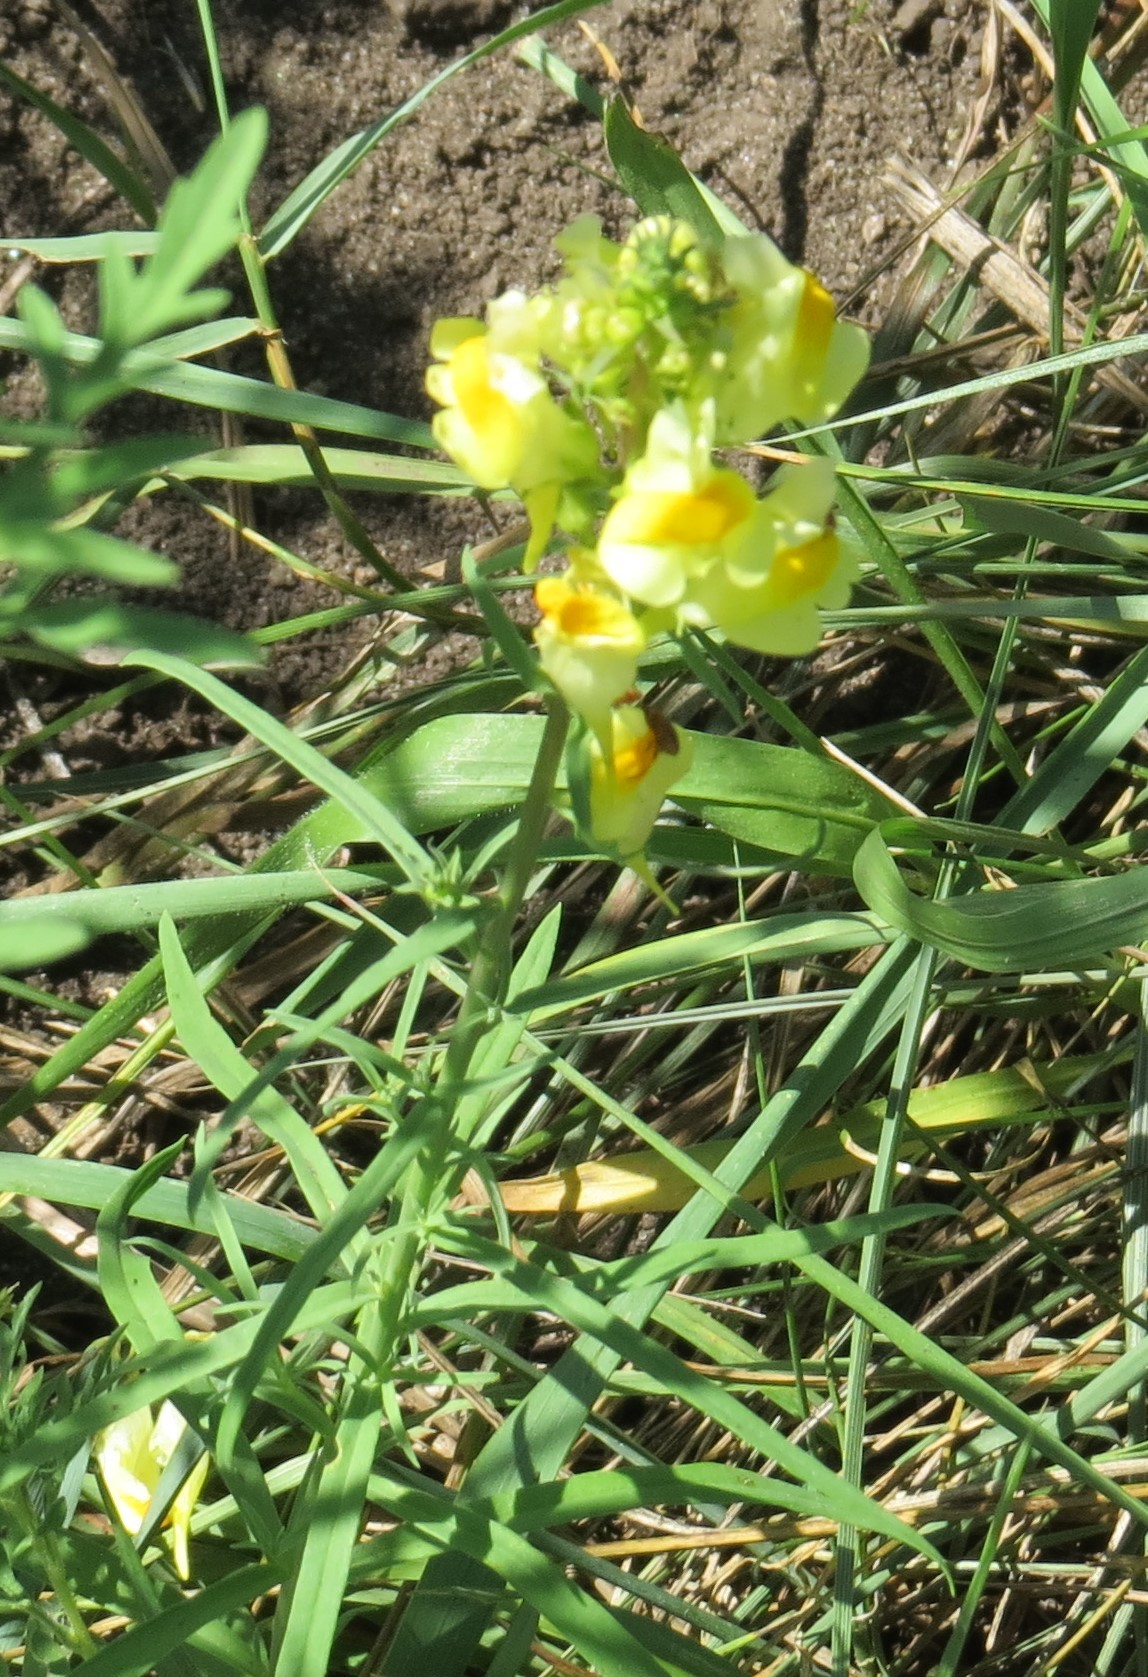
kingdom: Plantae
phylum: Tracheophyta
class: Magnoliopsida
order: Lamiales
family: Plantaginaceae
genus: Linaria
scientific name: Linaria vulgaris
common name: Butter and eggs
